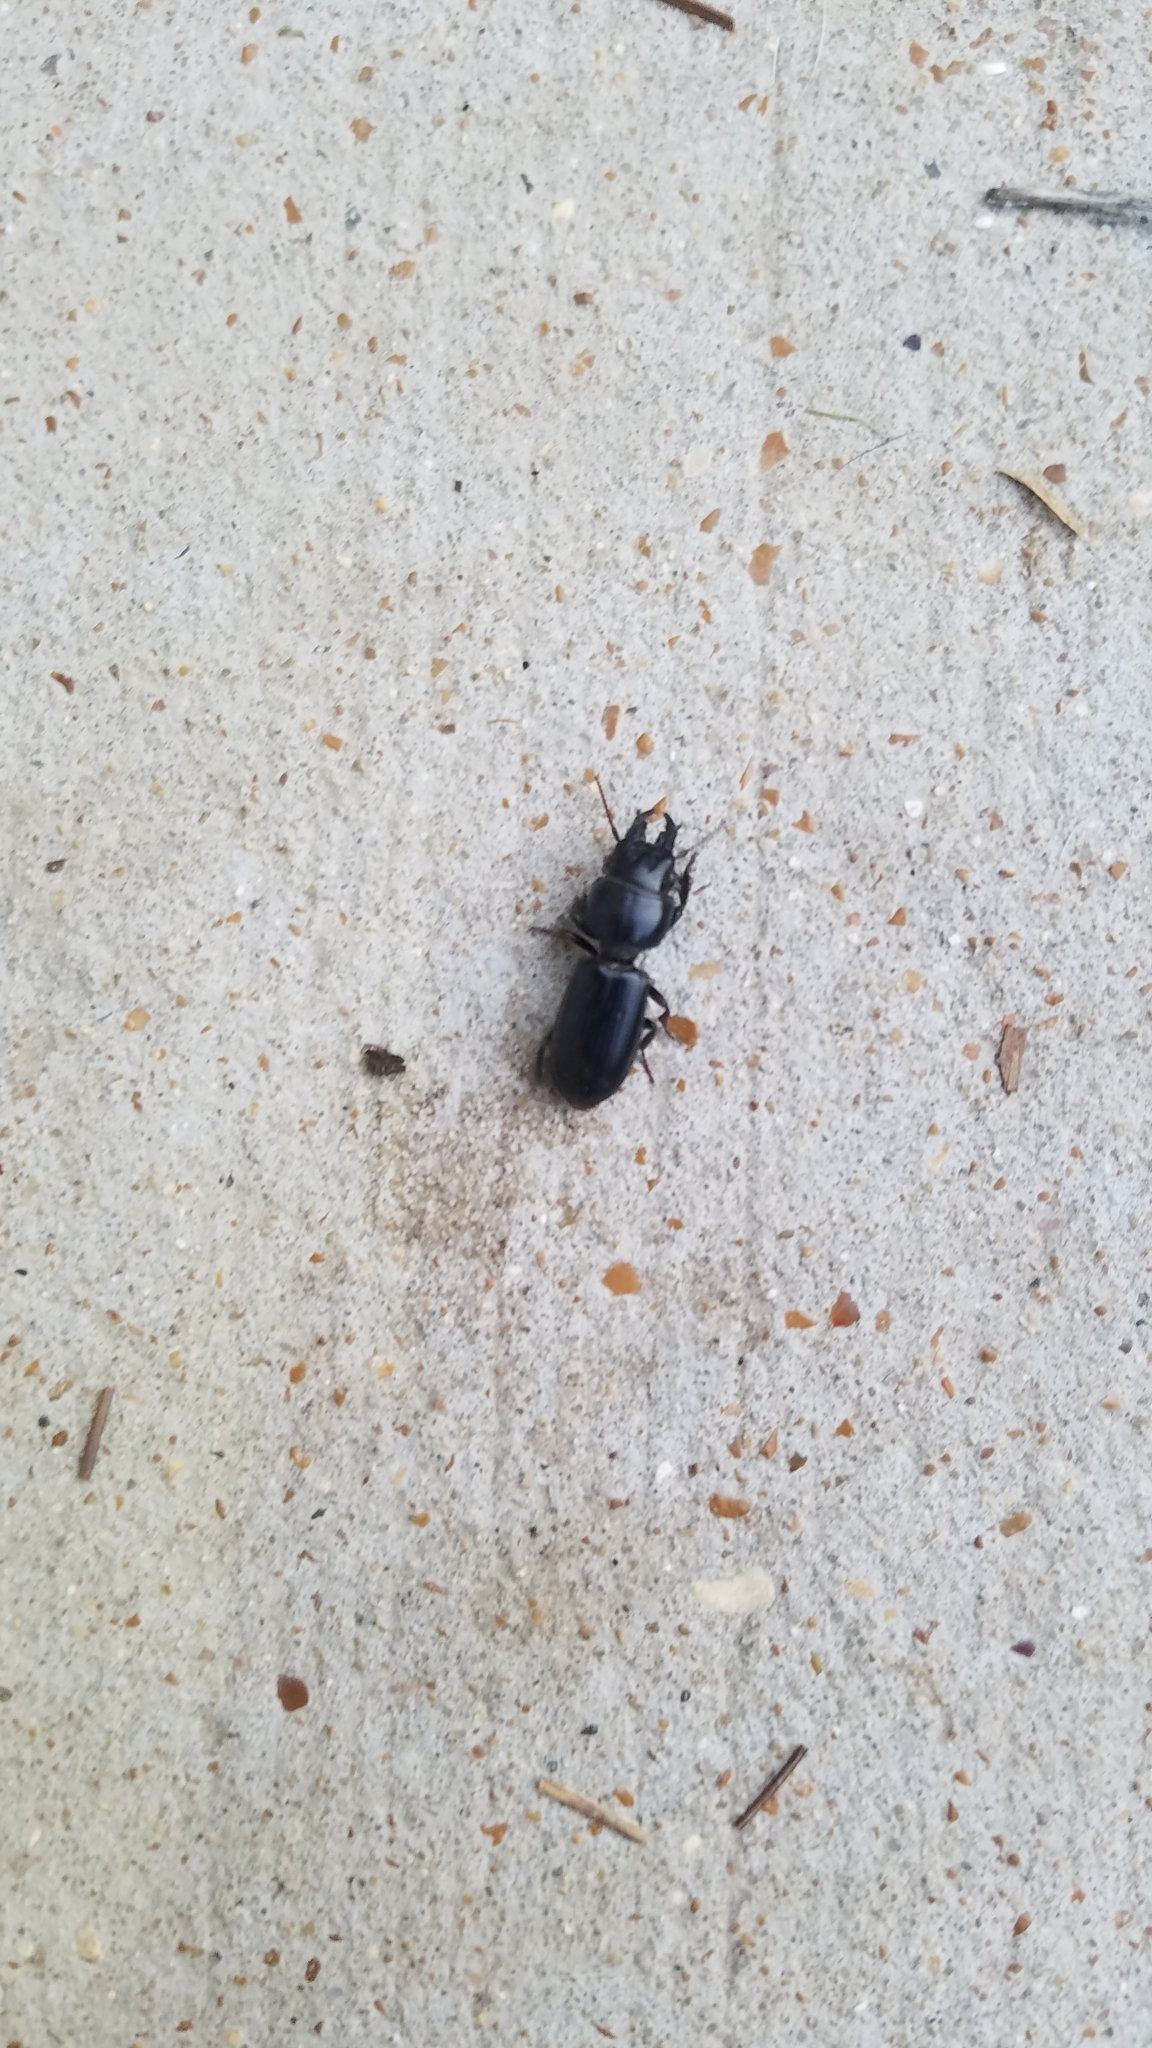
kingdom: Animalia
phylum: Arthropoda
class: Insecta
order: Coleoptera
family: Carabidae
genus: Scarites
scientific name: Scarites subterraneus
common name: Big-headed ground beetle
